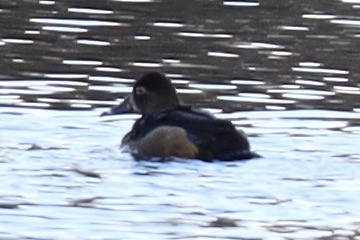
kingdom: Animalia
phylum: Chordata
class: Aves
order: Anseriformes
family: Anatidae
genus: Aythya
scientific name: Aythya collaris
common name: Ring-necked duck
